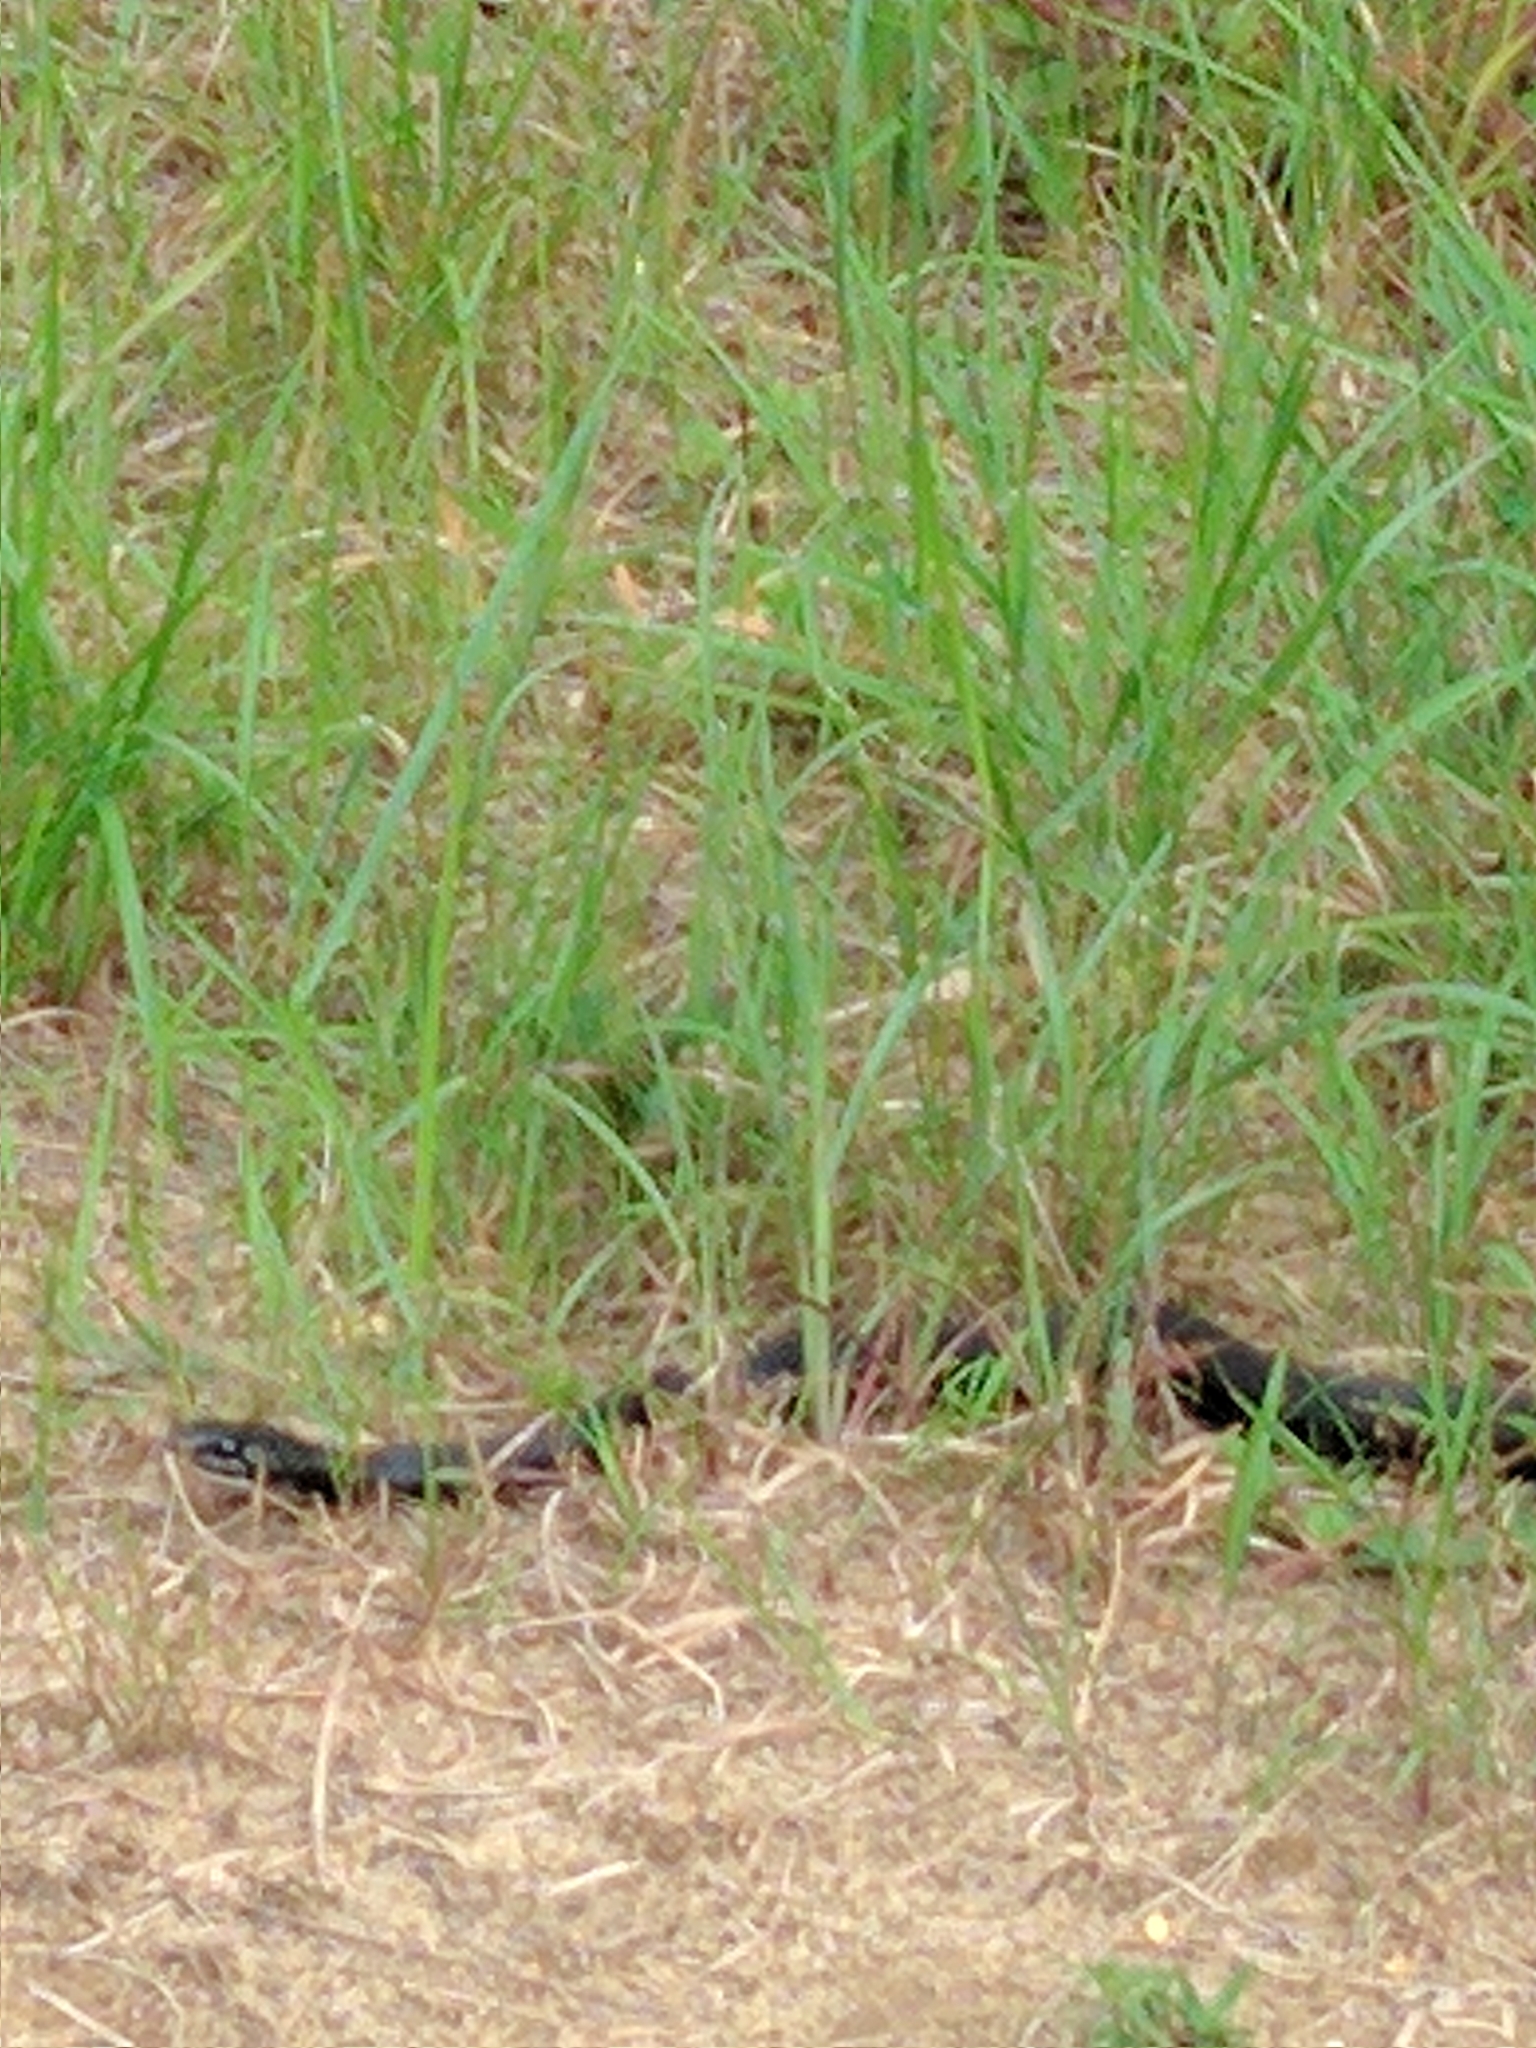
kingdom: Animalia
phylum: Chordata
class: Squamata
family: Colubridae
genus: Coluber
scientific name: Coluber constrictor
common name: Eastern racer
